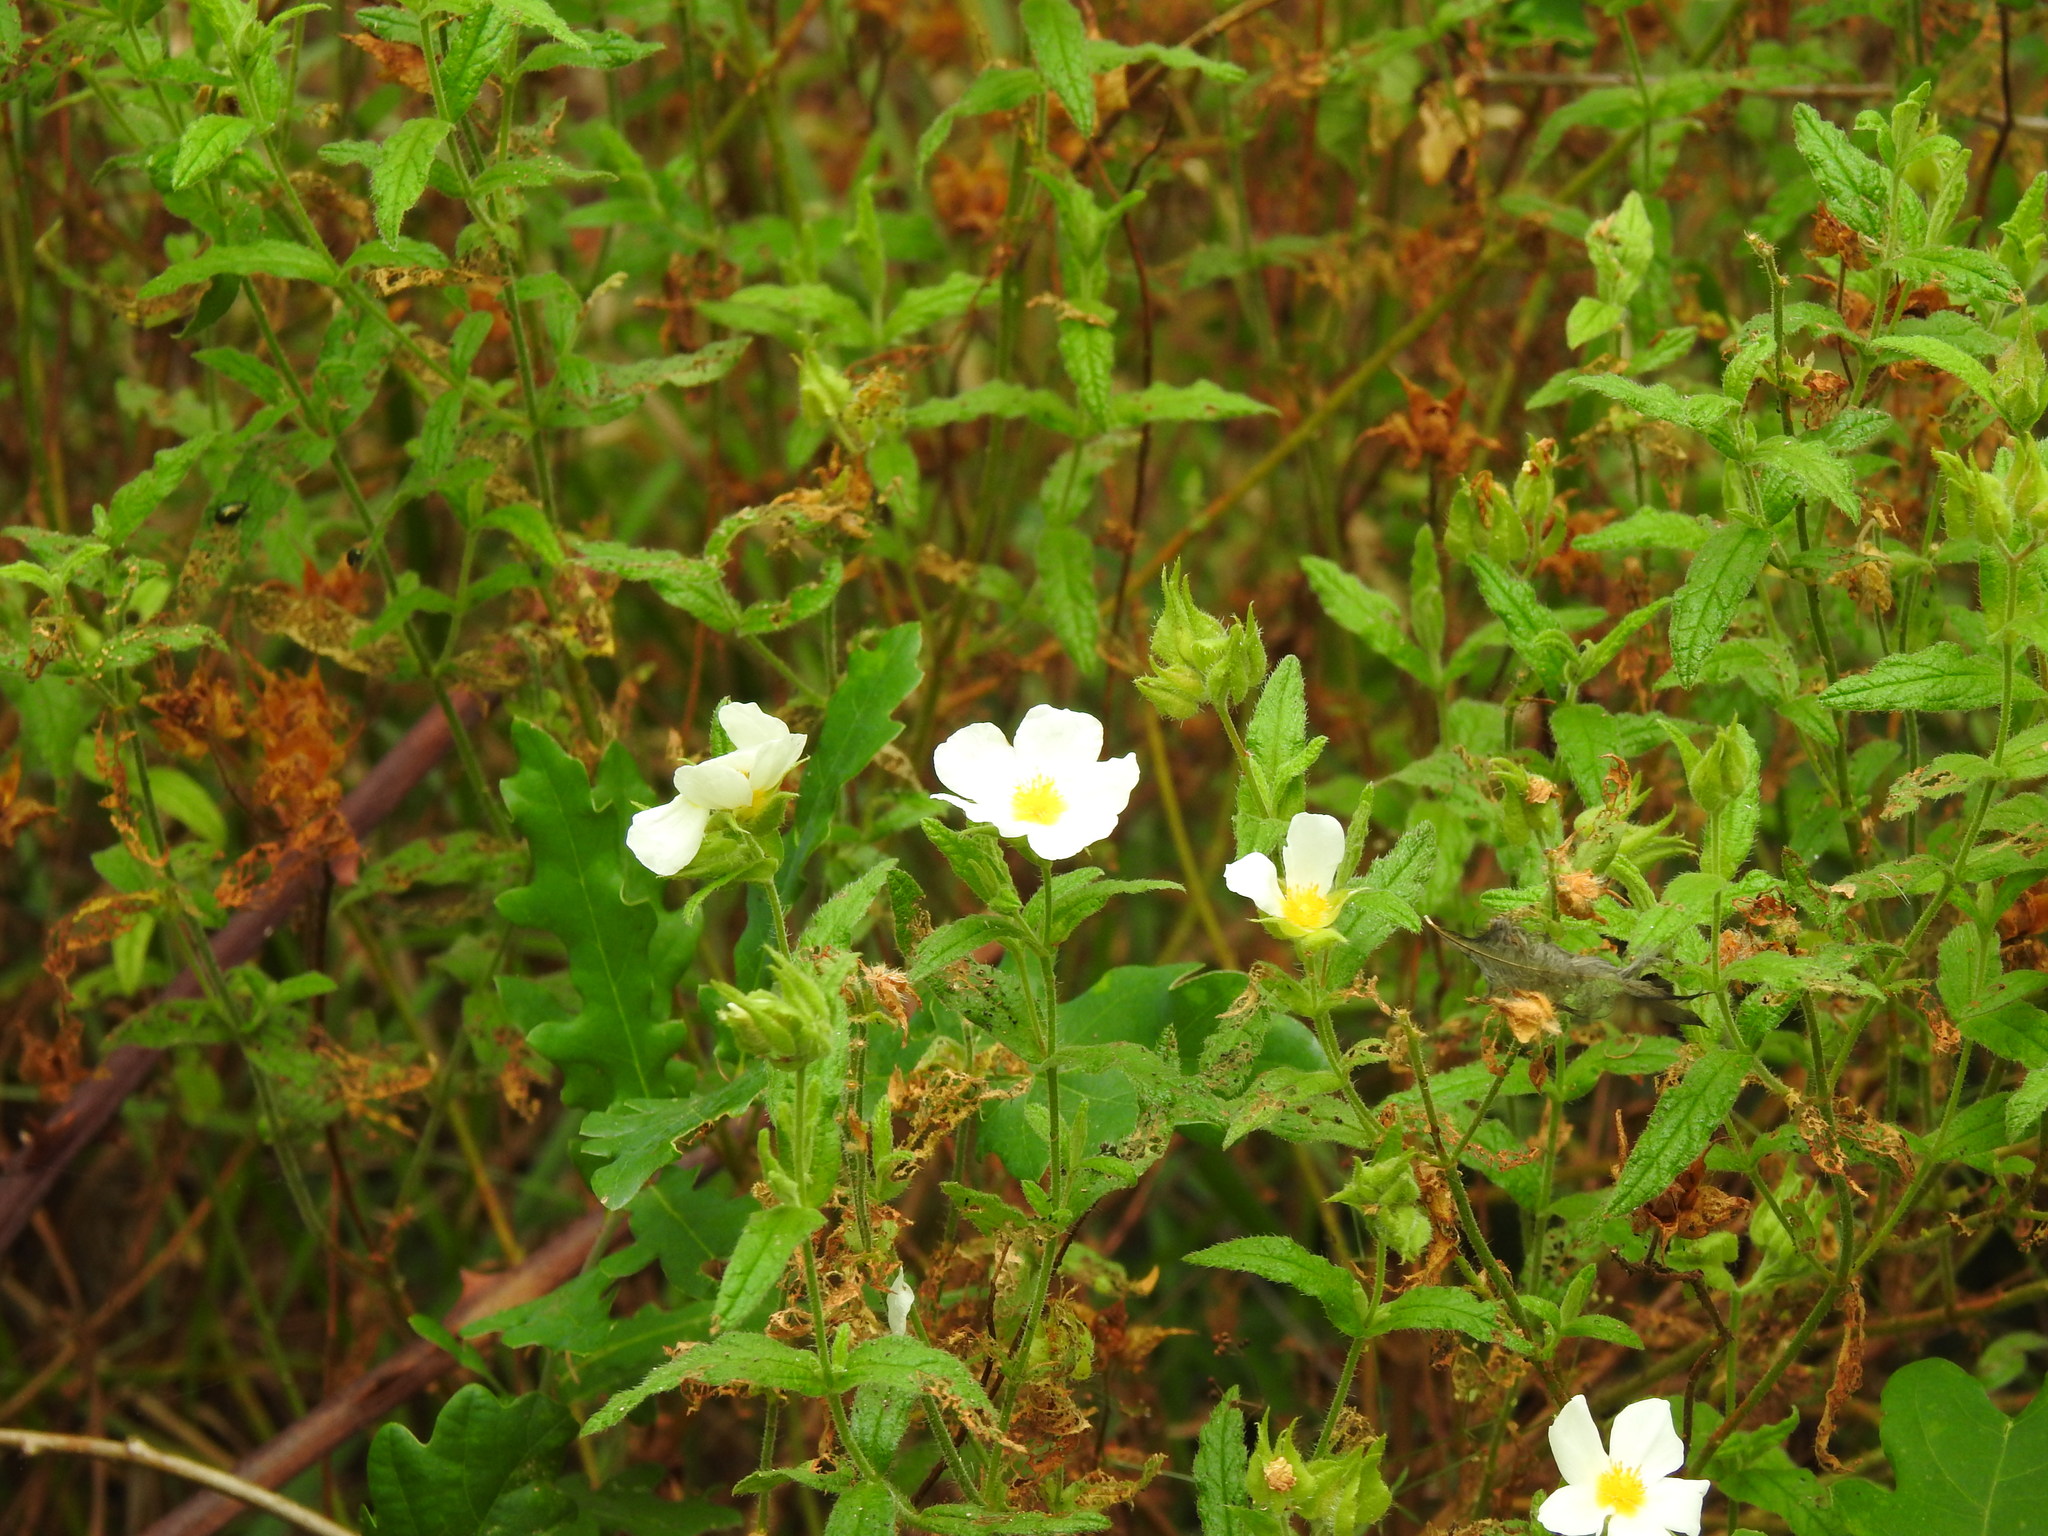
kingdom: Plantae
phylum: Tracheophyta
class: Magnoliopsida
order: Malvales
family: Cistaceae
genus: Cistus
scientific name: Cistus inflatus
